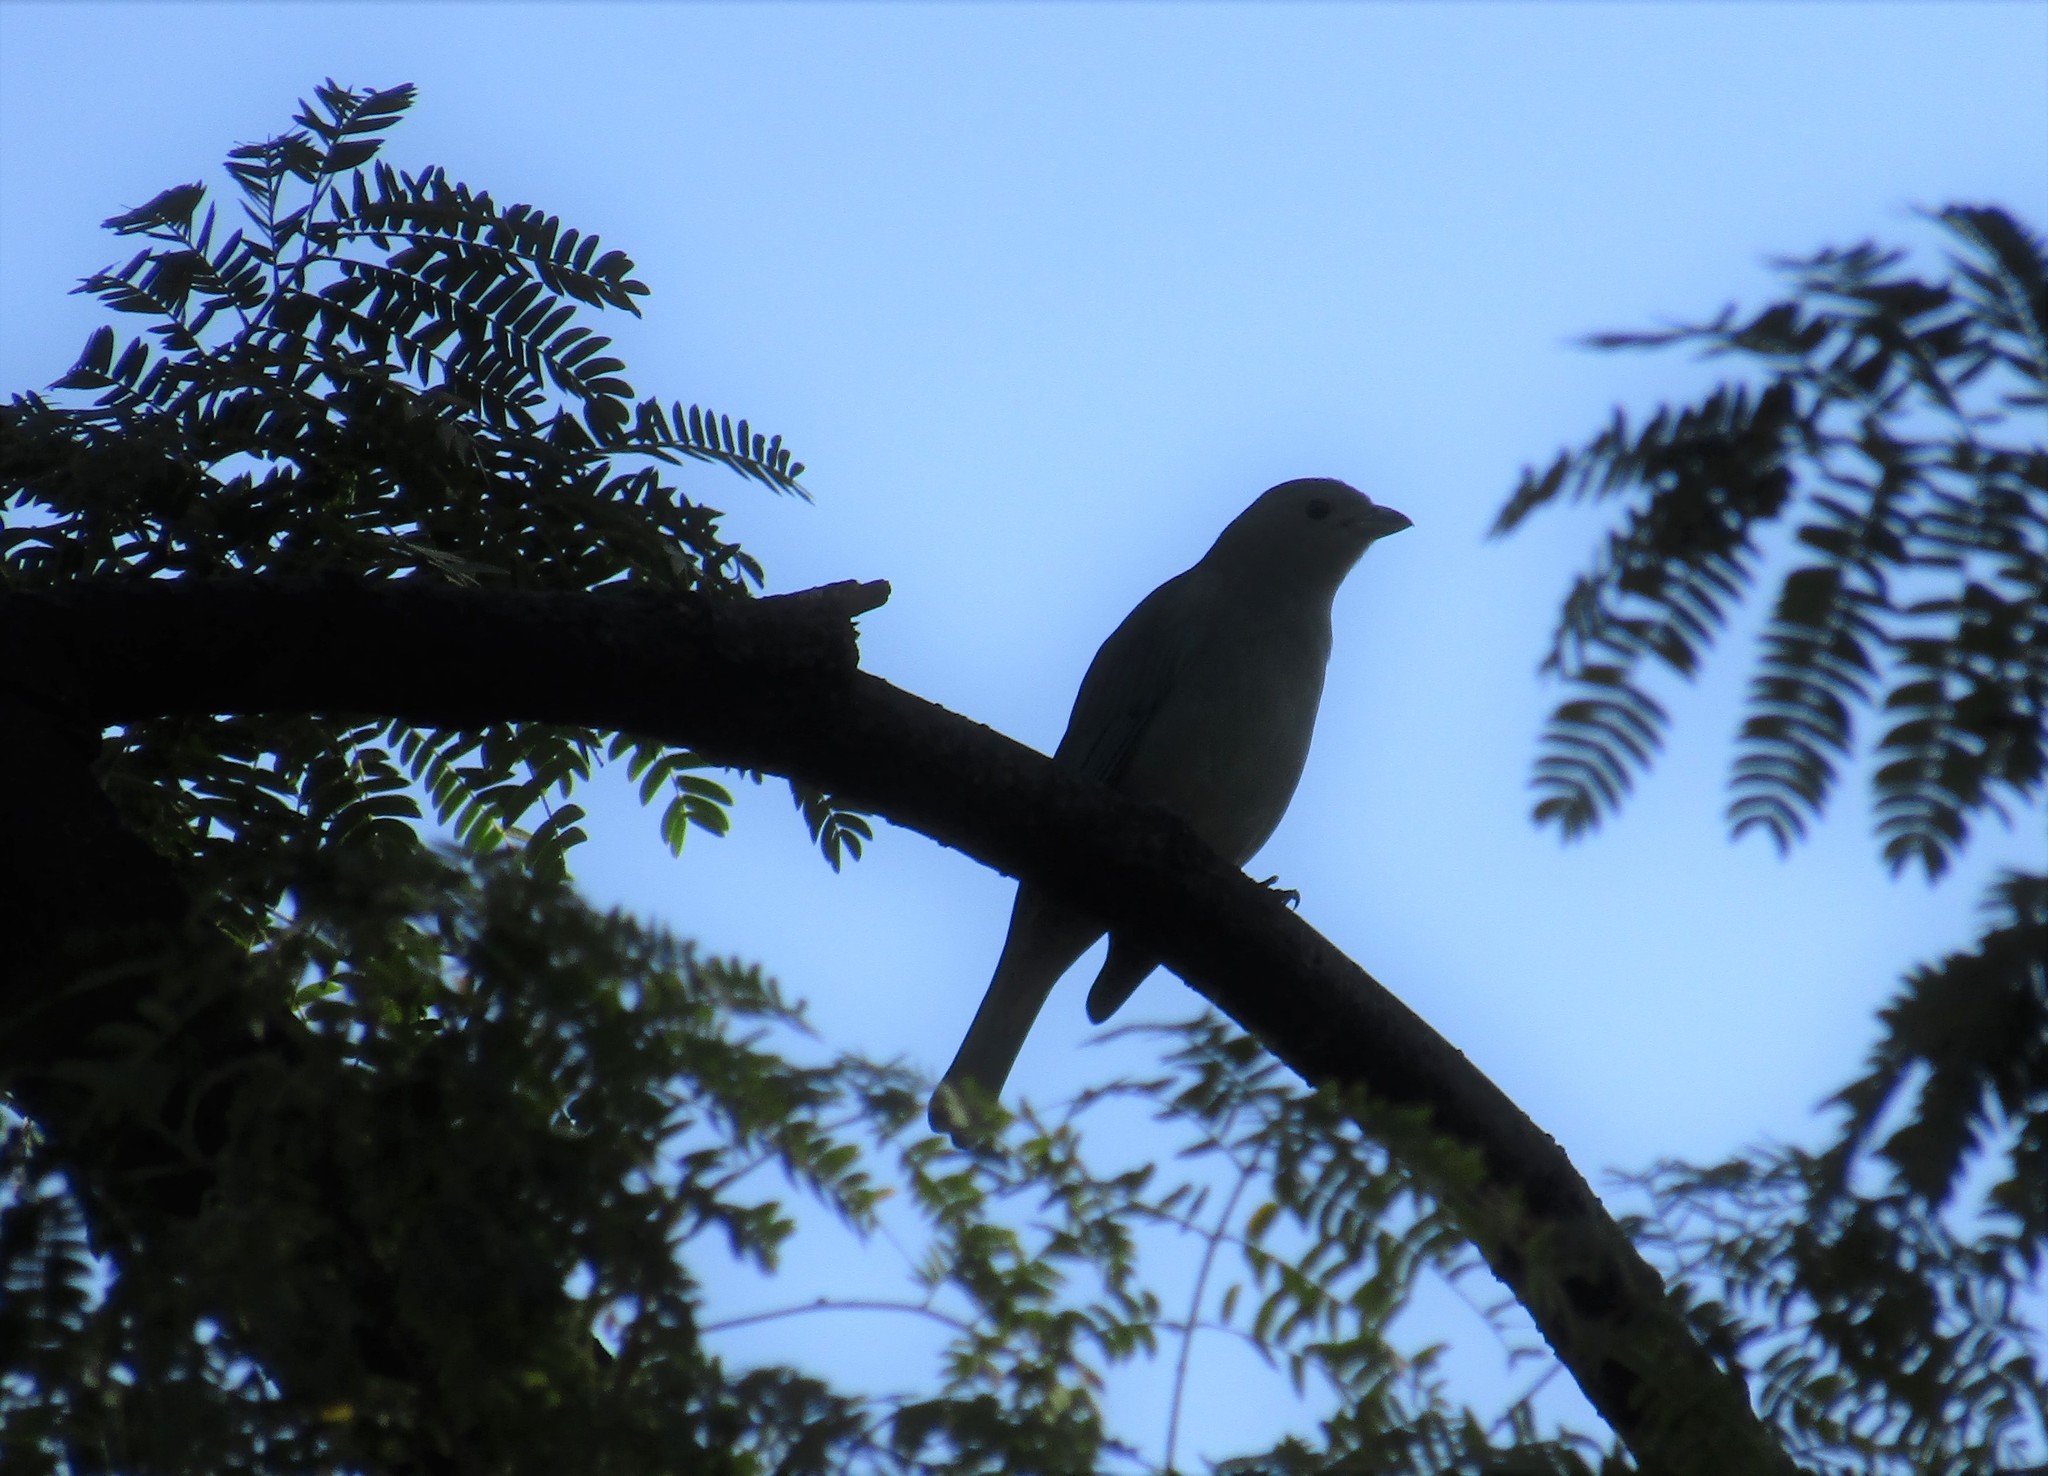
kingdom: Animalia
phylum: Chordata
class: Aves
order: Passeriformes
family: Thraupidae
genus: Thraupis
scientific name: Thraupis sayaca
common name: Sayaca tanager
